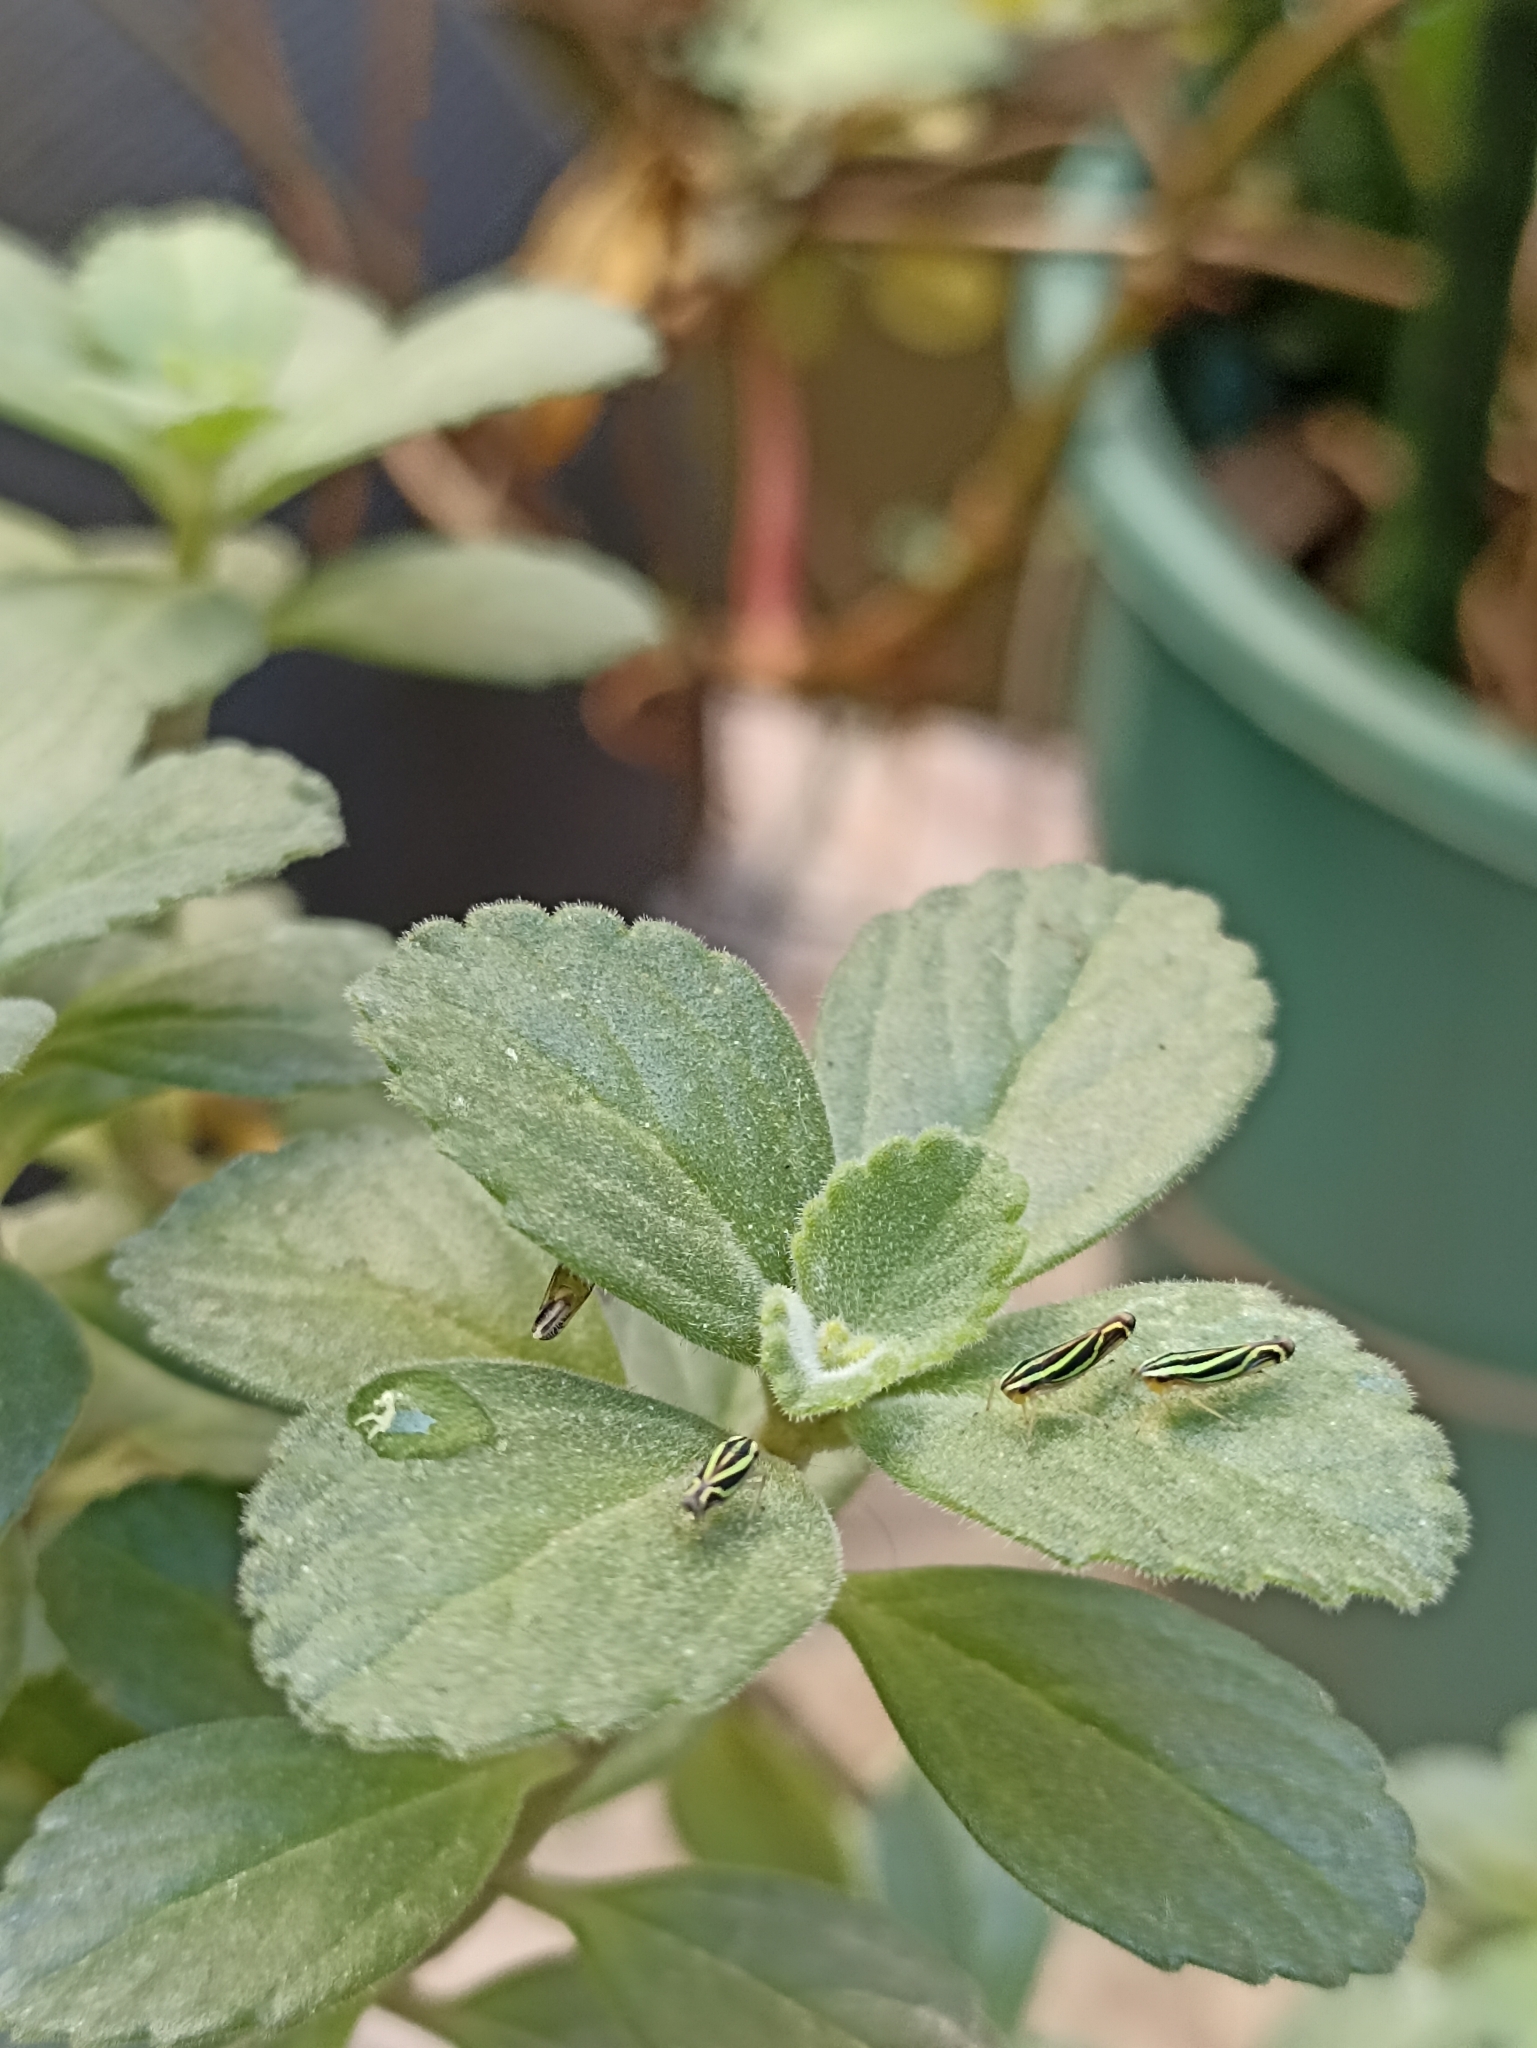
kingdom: Animalia
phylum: Arthropoda
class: Insecta
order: Hemiptera
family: Cicadellidae
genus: Sibovia
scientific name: Sibovia sagata
